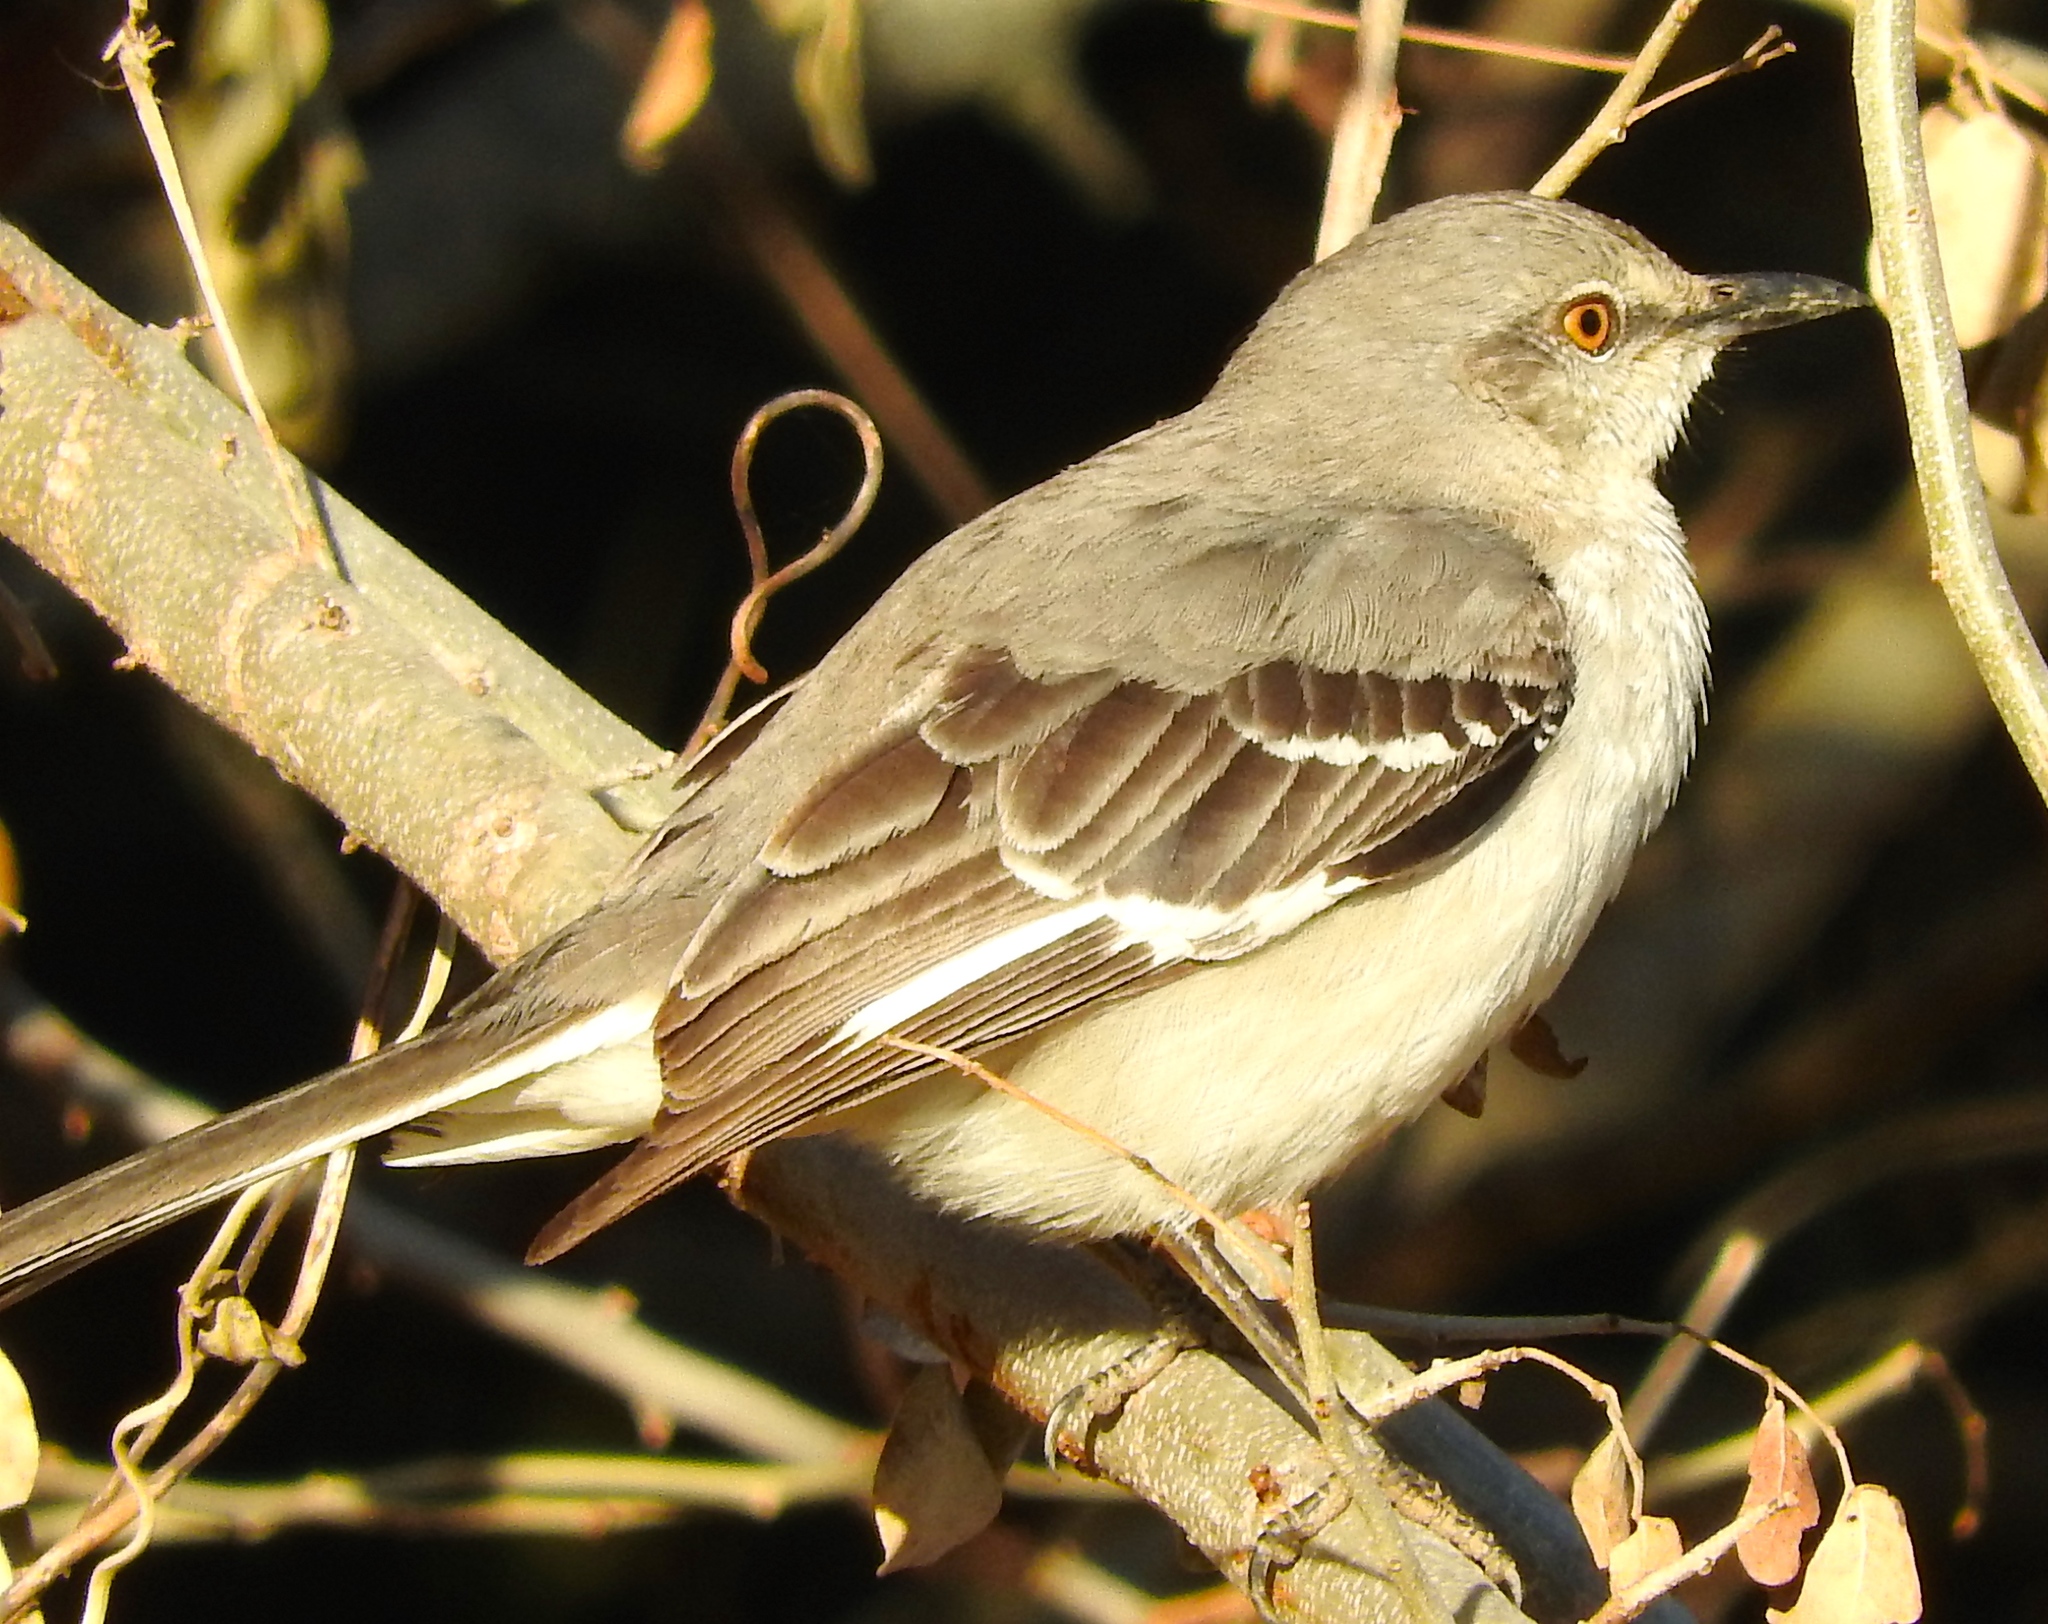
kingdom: Animalia
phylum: Chordata
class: Aves
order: Passeriformes
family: Mimidae
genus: Mimus
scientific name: Mimus polyglottos
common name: Northern mockingbird
